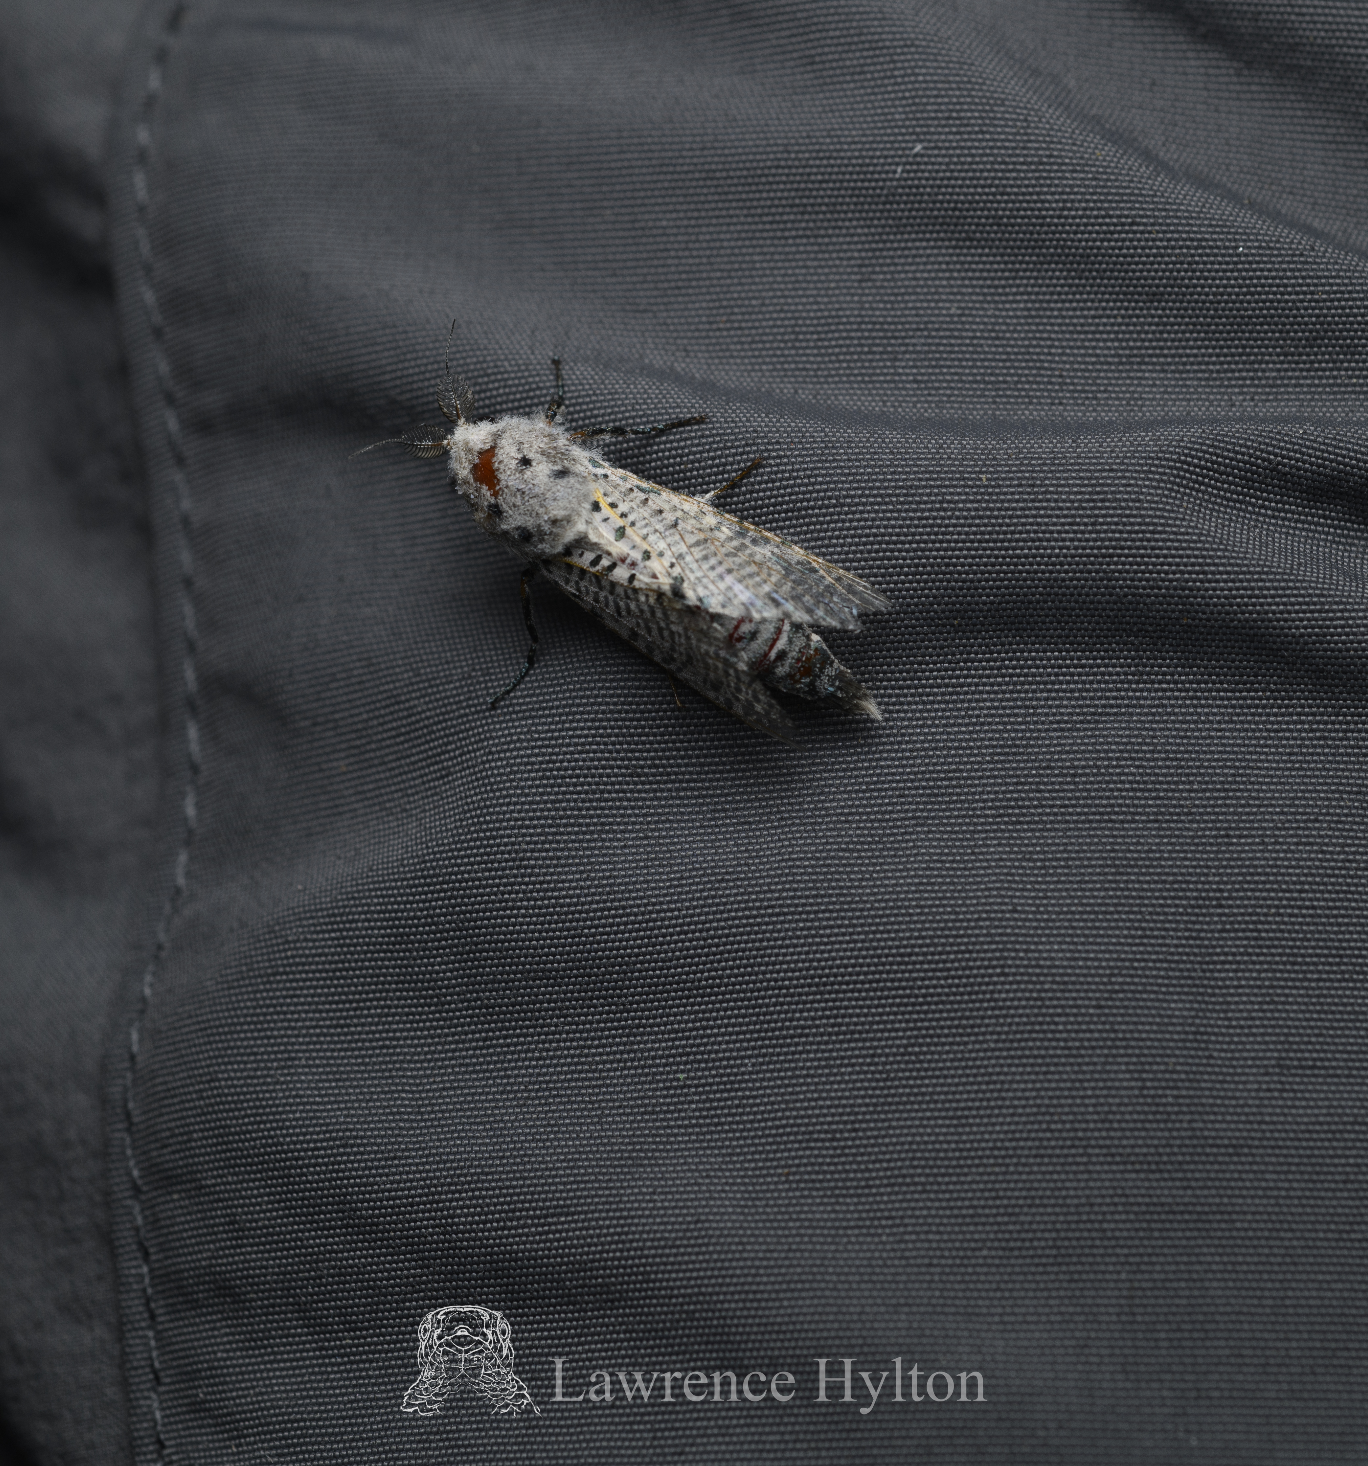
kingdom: Animalia
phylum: Arthropoda
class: Insecta
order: Lepidoptera
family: Cossidae
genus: Polyphagozerra
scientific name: Polyphagozerra coffeae
